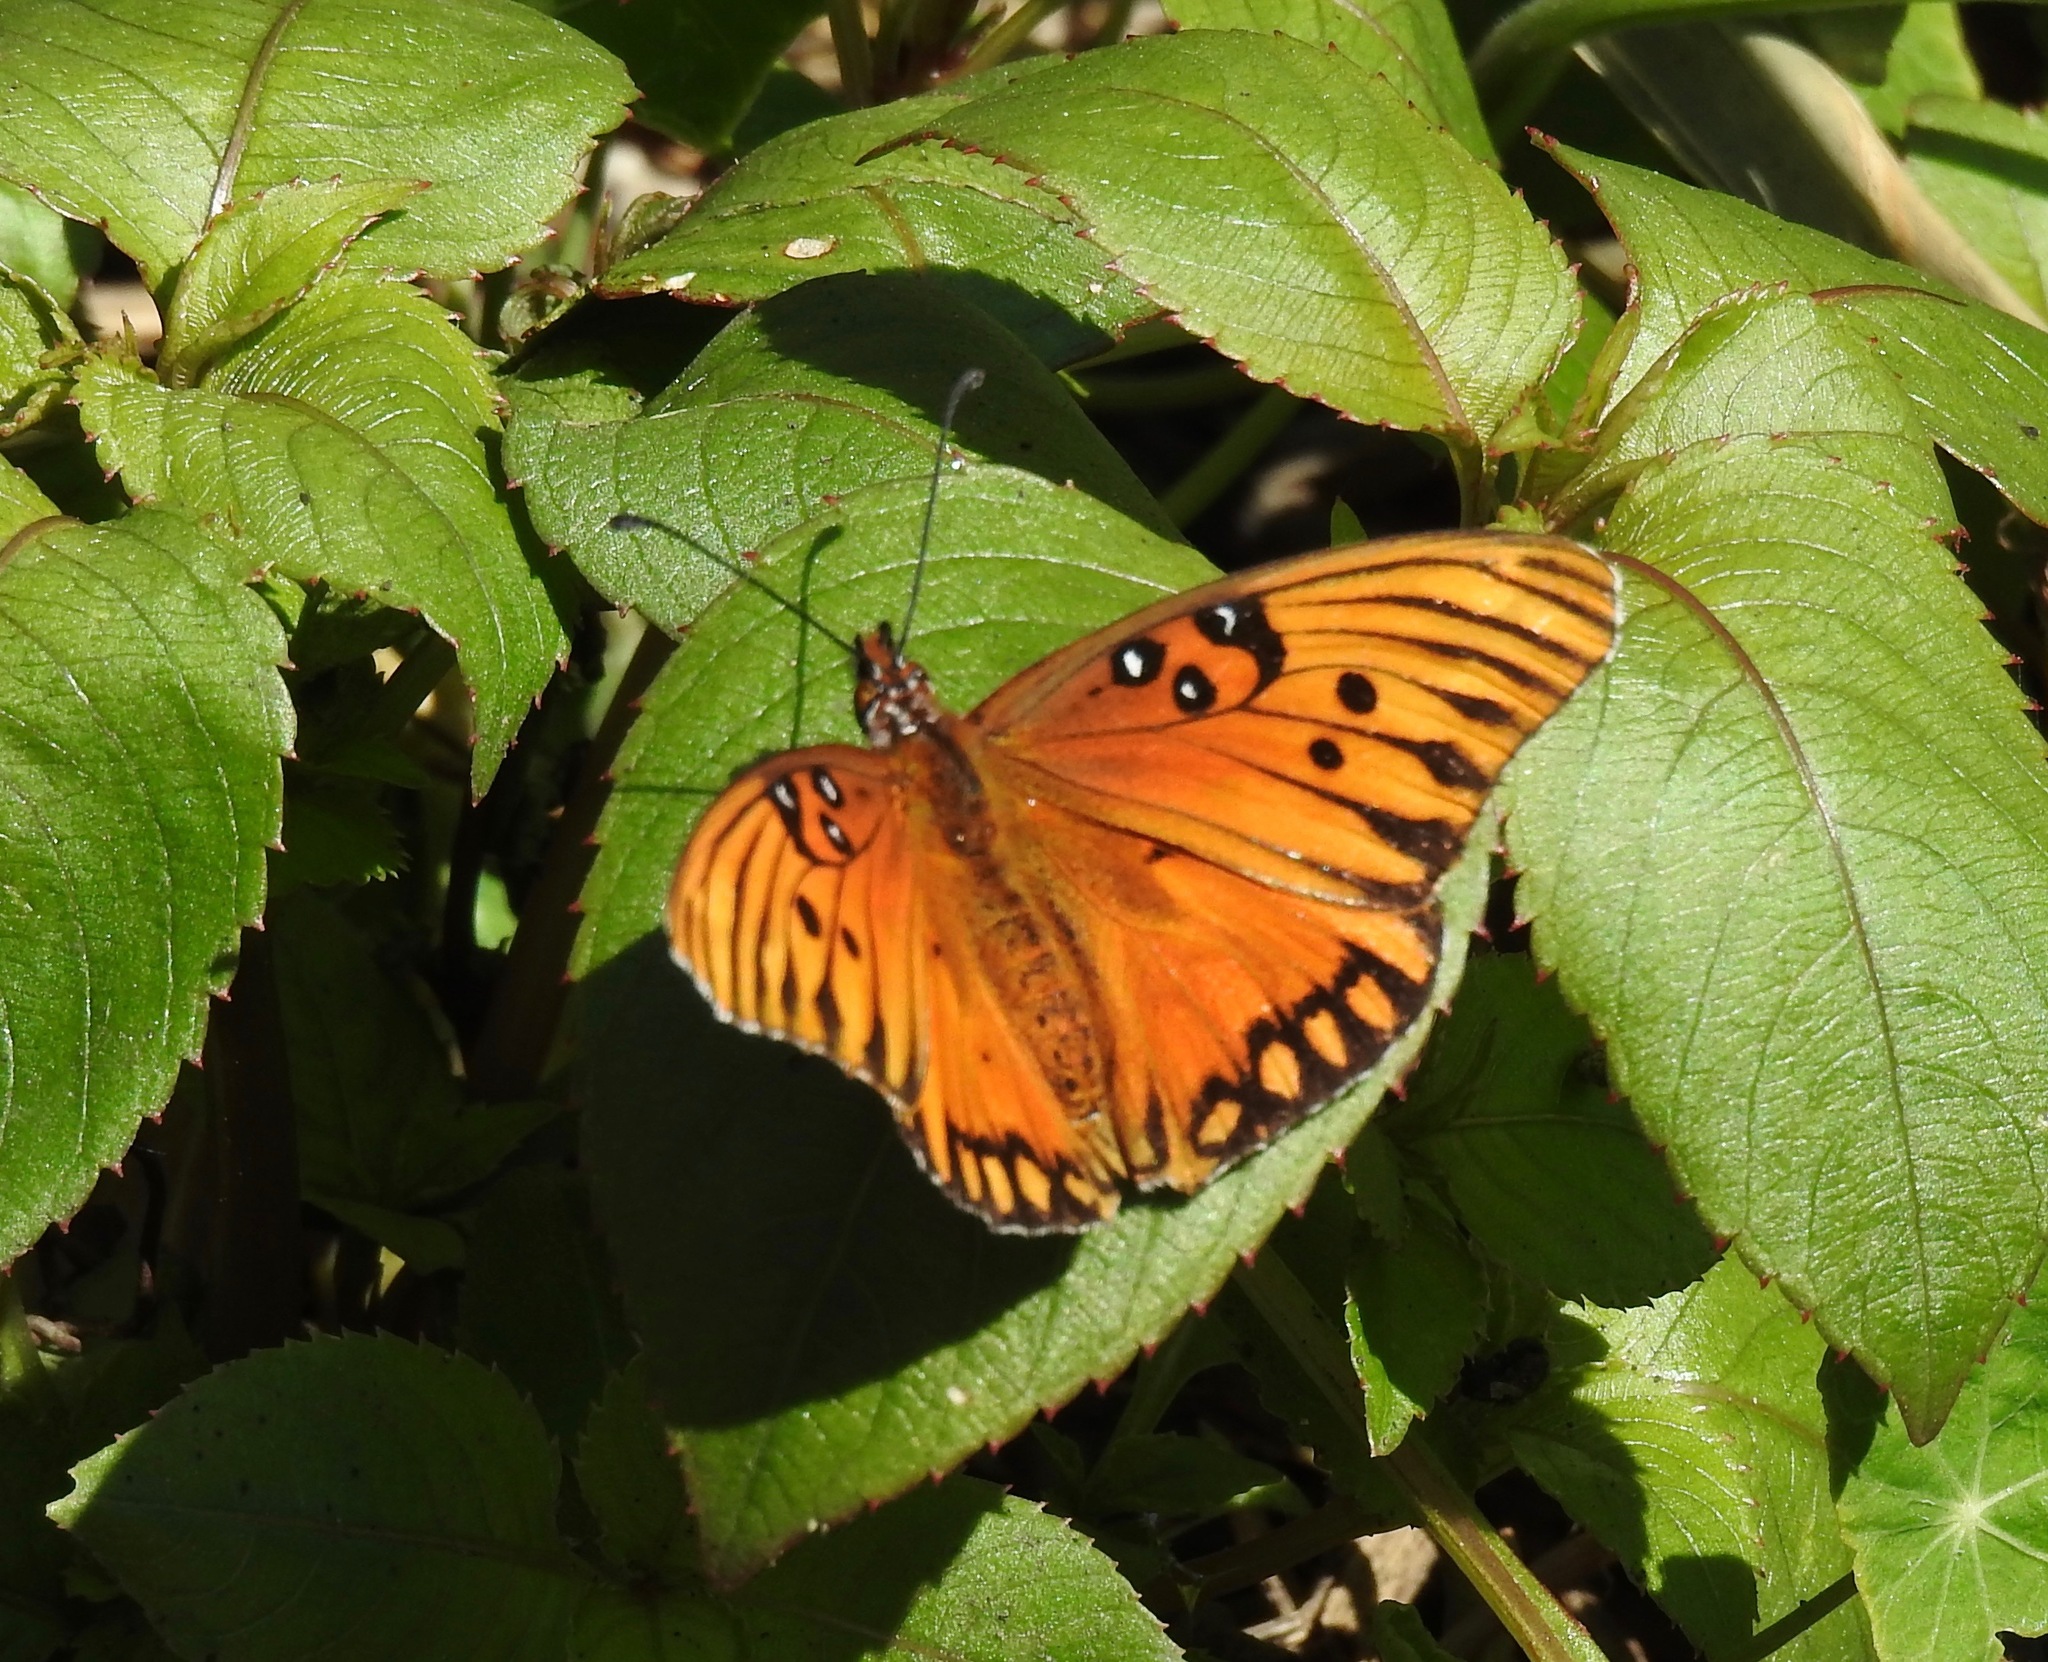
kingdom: Animalia
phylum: Arthropoda
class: Insecta
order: Lepidoptera
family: Nymphalidae
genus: Dione
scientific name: Dione vanillae
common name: Gulf fritillary
